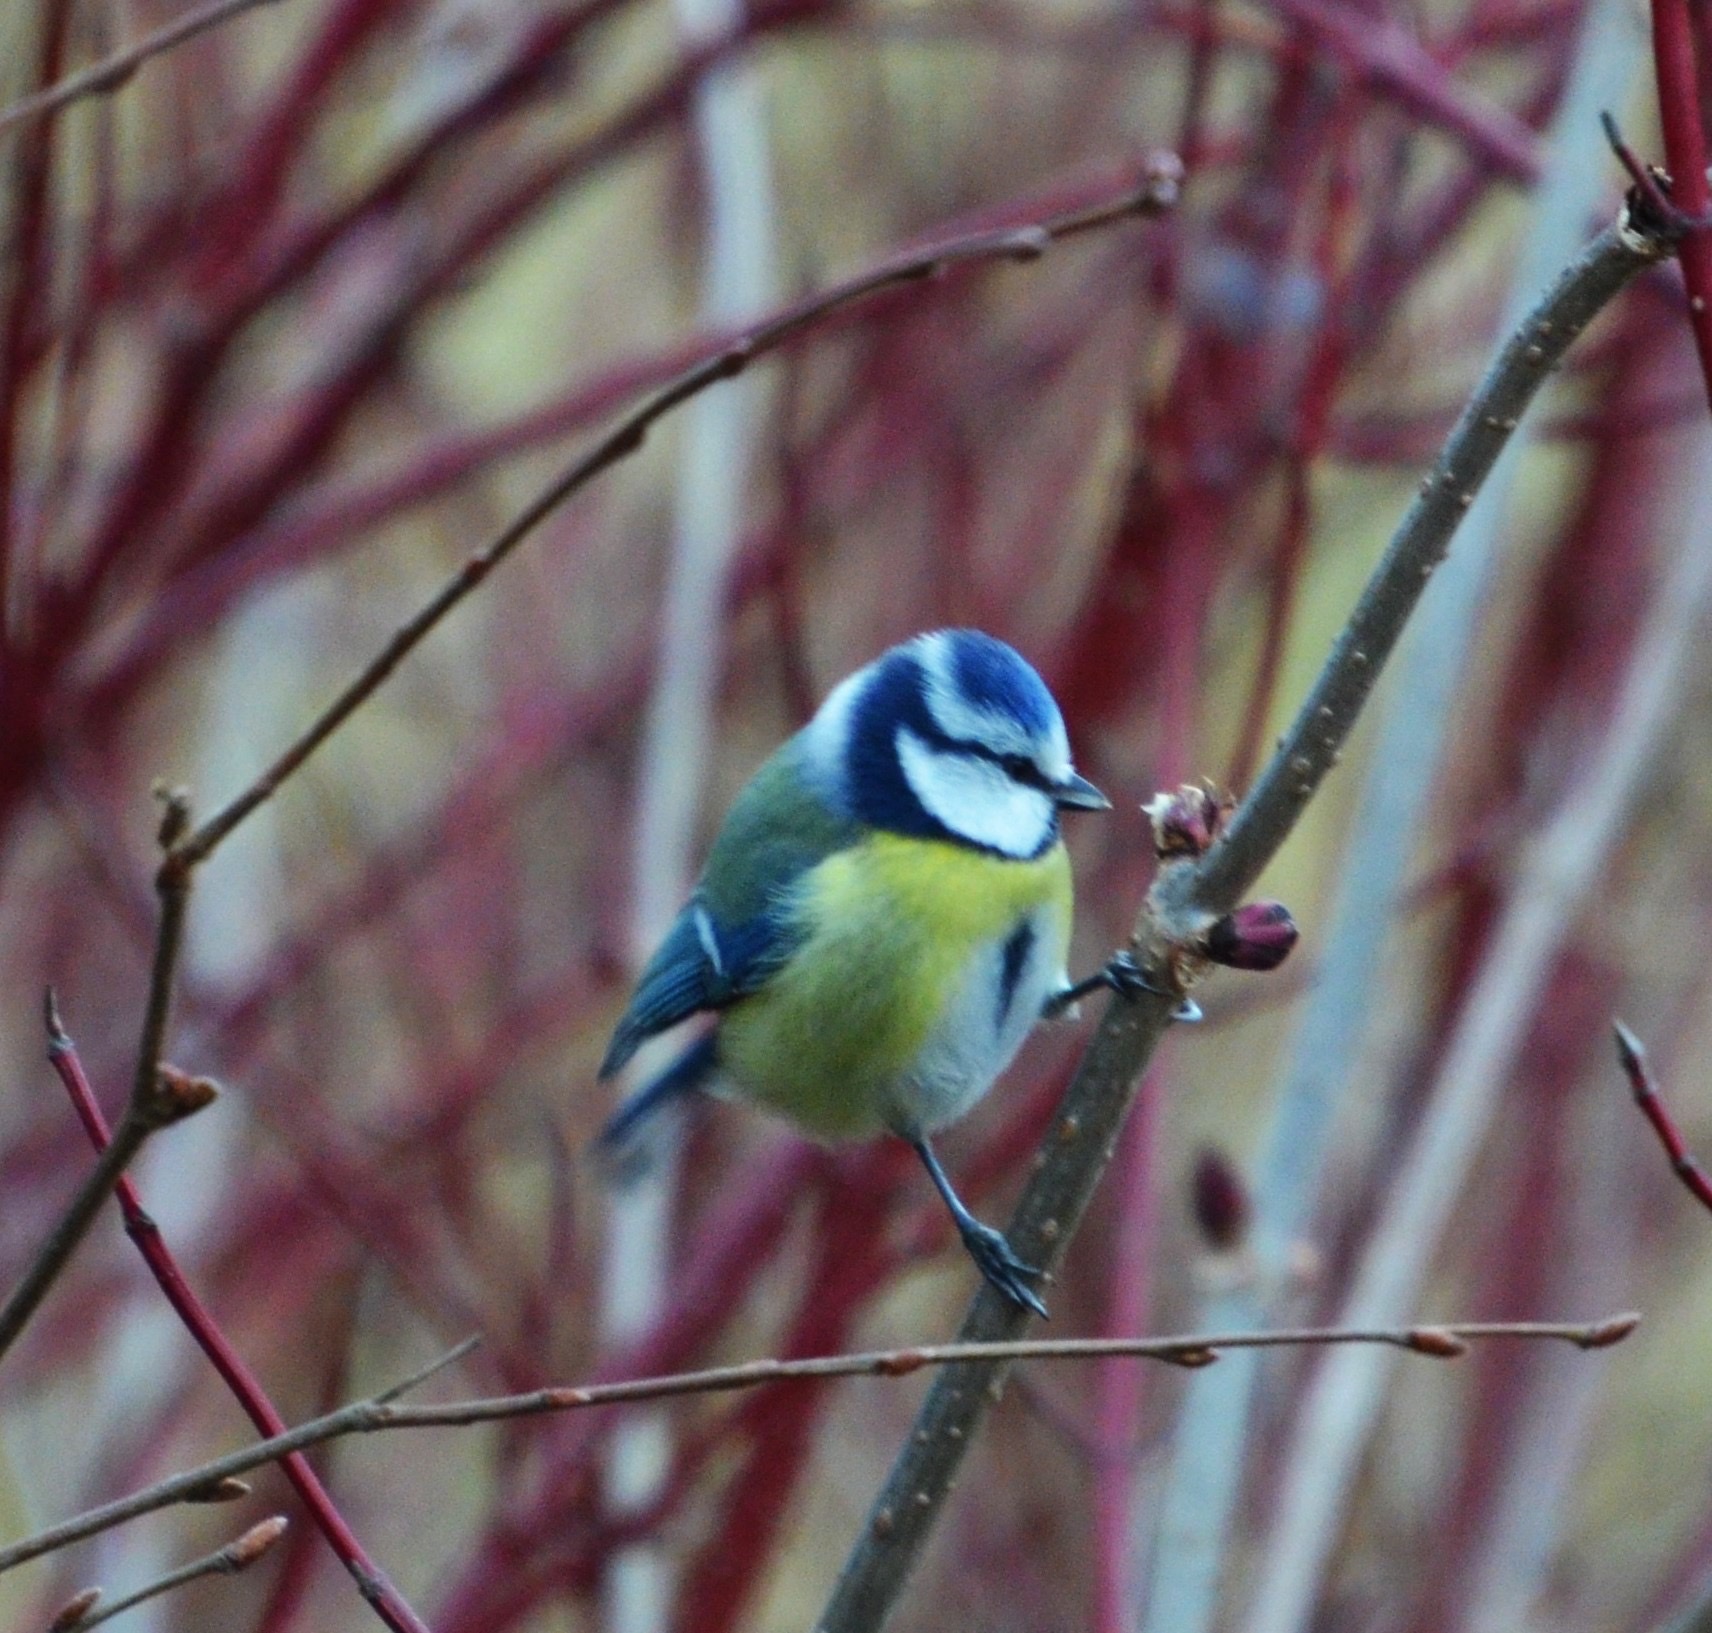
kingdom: Animalia
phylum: Chordata
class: Aves
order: Passeriformes
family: Paridae
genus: Cyanistes
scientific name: Cyanistes caeruleus
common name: Eurasian blue tit
